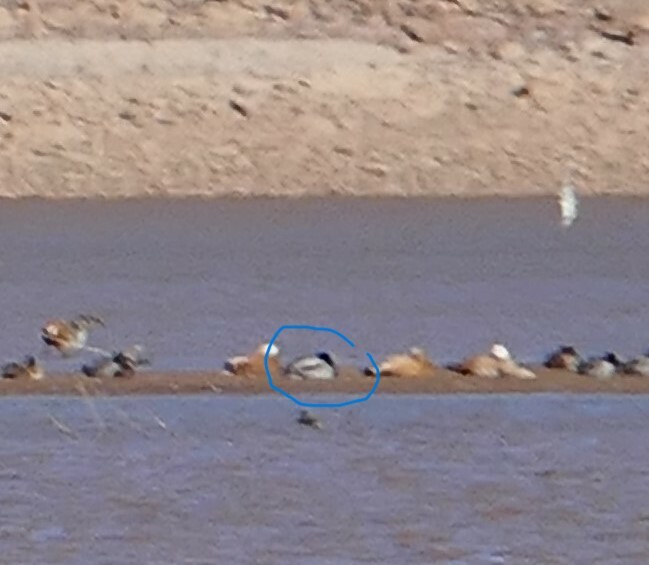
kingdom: Animalia
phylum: Chordata
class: Aves
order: Anseriformes
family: Anatidae
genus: Anas
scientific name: Anas platyrhynchos
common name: Mallard
